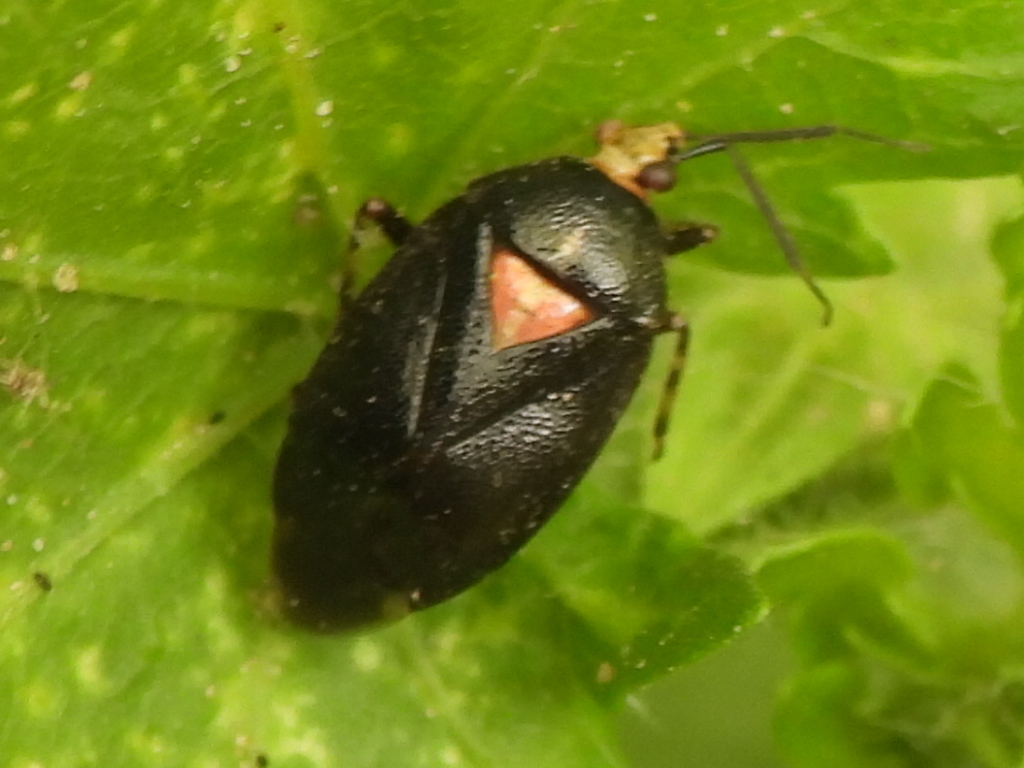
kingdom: Animalia
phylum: Arthropoda
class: Insecta
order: Hemiptera
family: Miridae
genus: Deraeocoris
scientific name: Deraeocoris sayi
